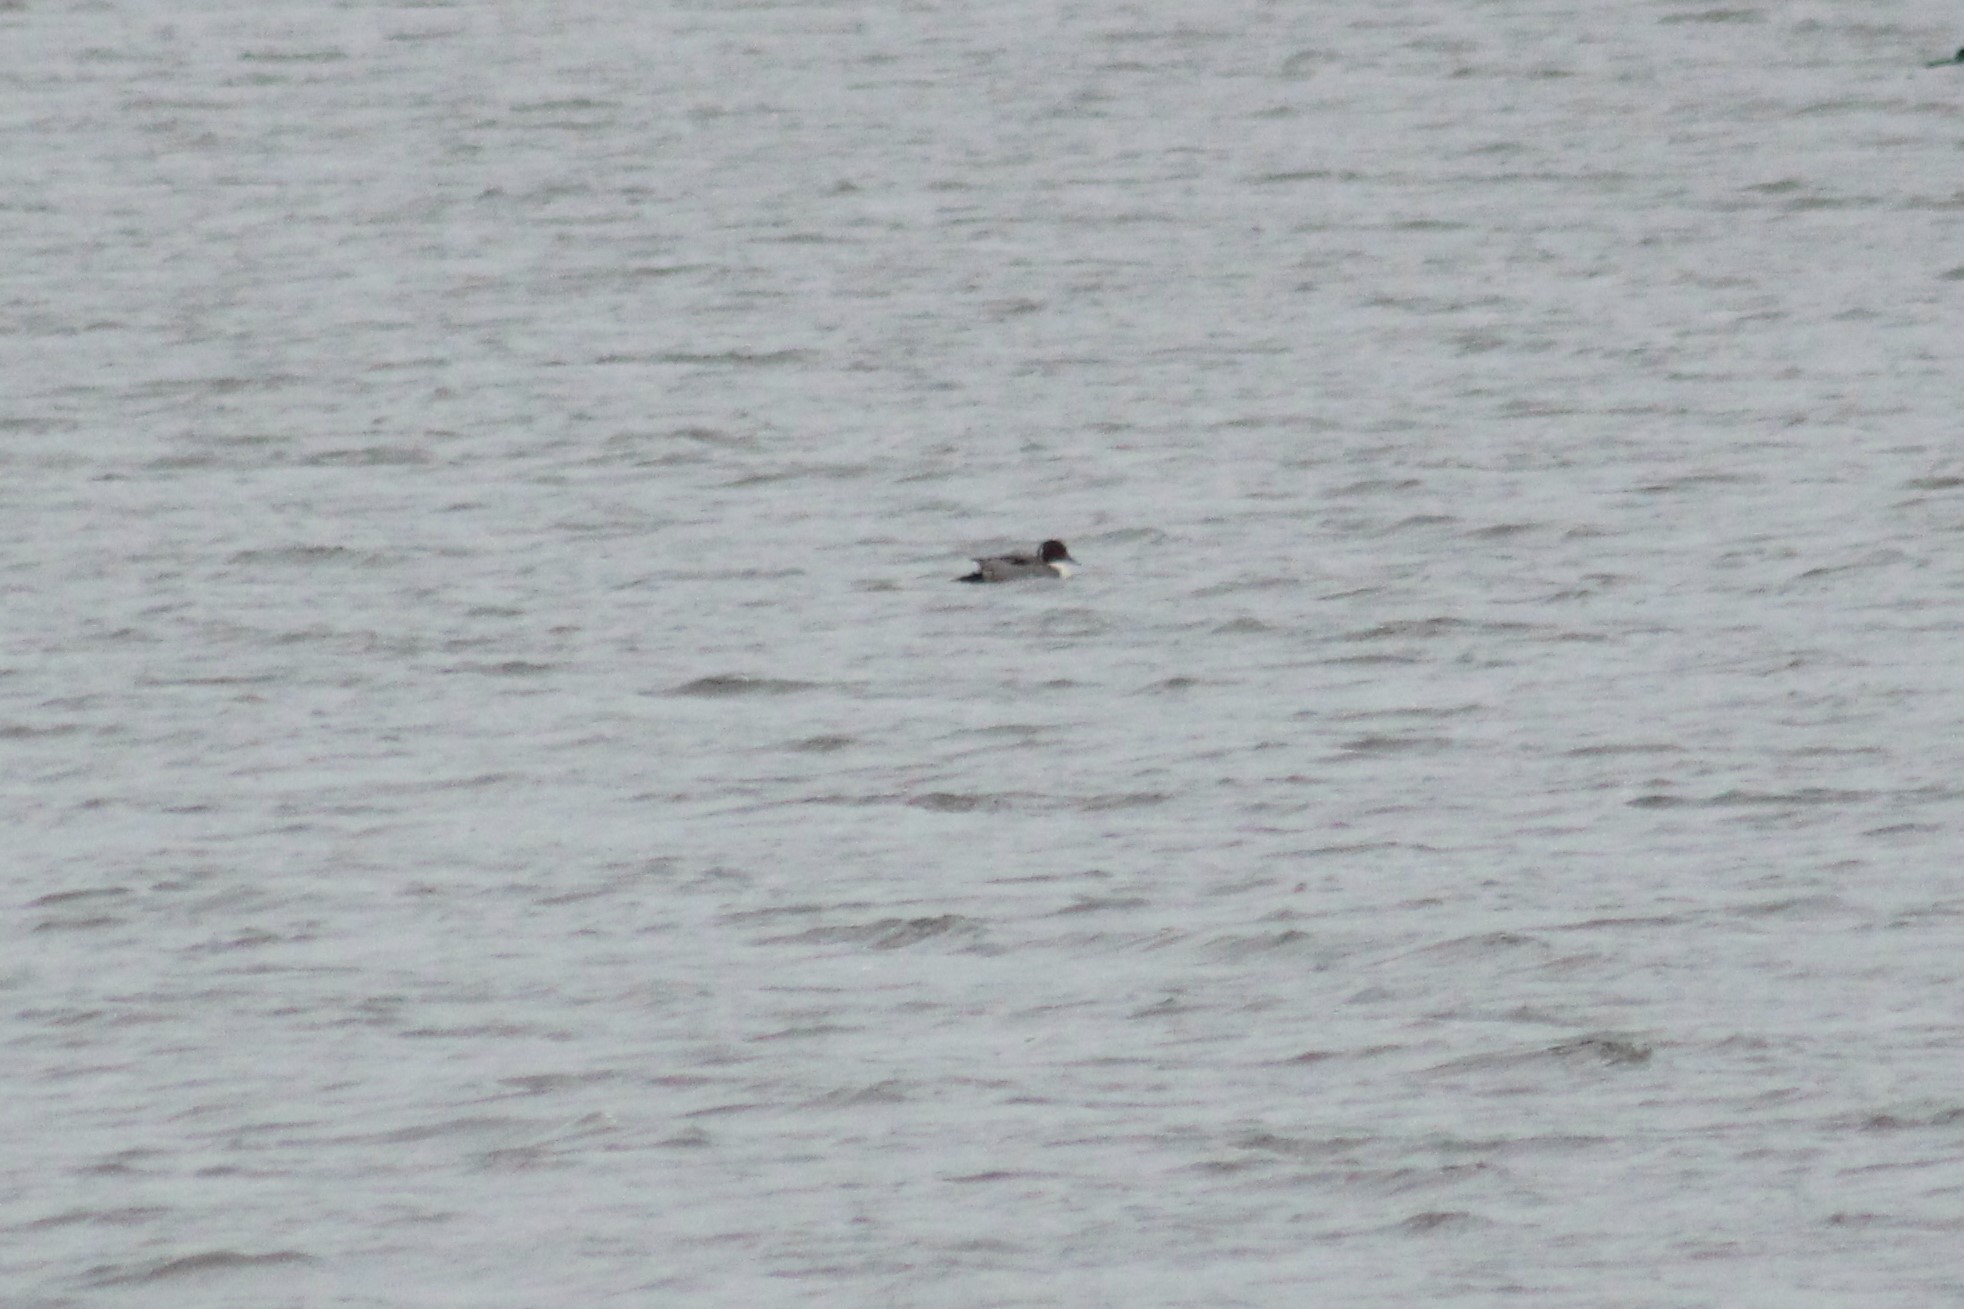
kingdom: Animalia
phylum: Chordata
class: Aves
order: Anseriformes
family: Anatidae
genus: Anas
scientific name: Anas acuta
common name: Northern pintail
